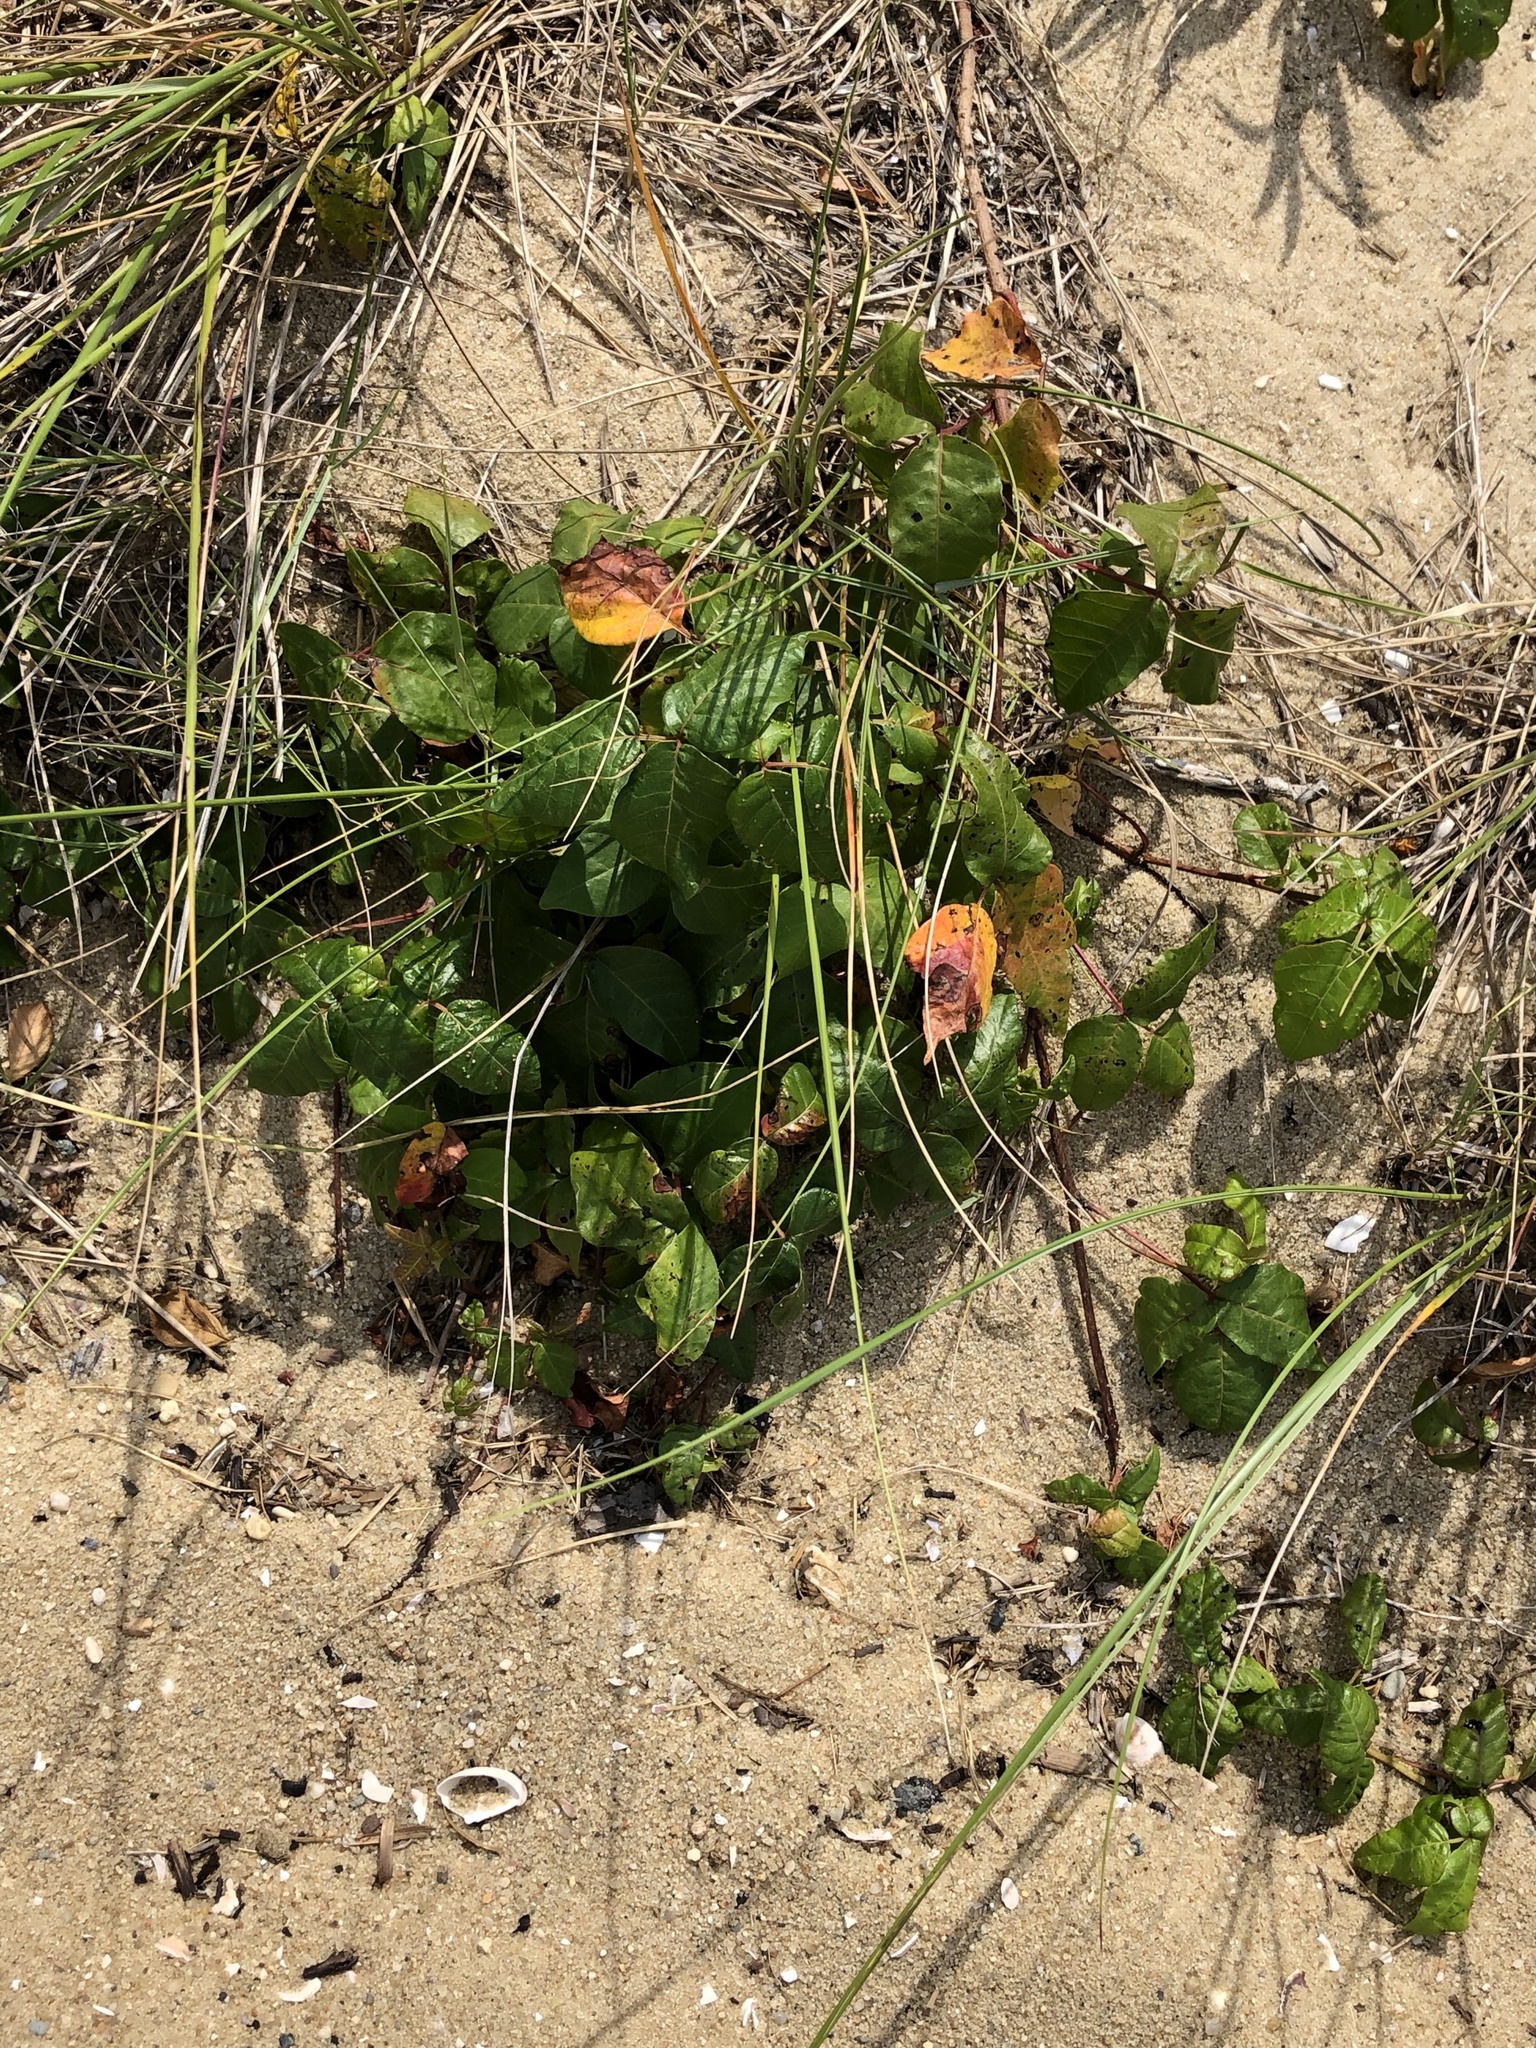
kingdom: Plantae
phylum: Tracheophyta
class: Magnoliopsida
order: Sapindales
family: Anacardiaceae
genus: Toxicodendron
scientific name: Toxicodendron radicans
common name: Poison ivy
